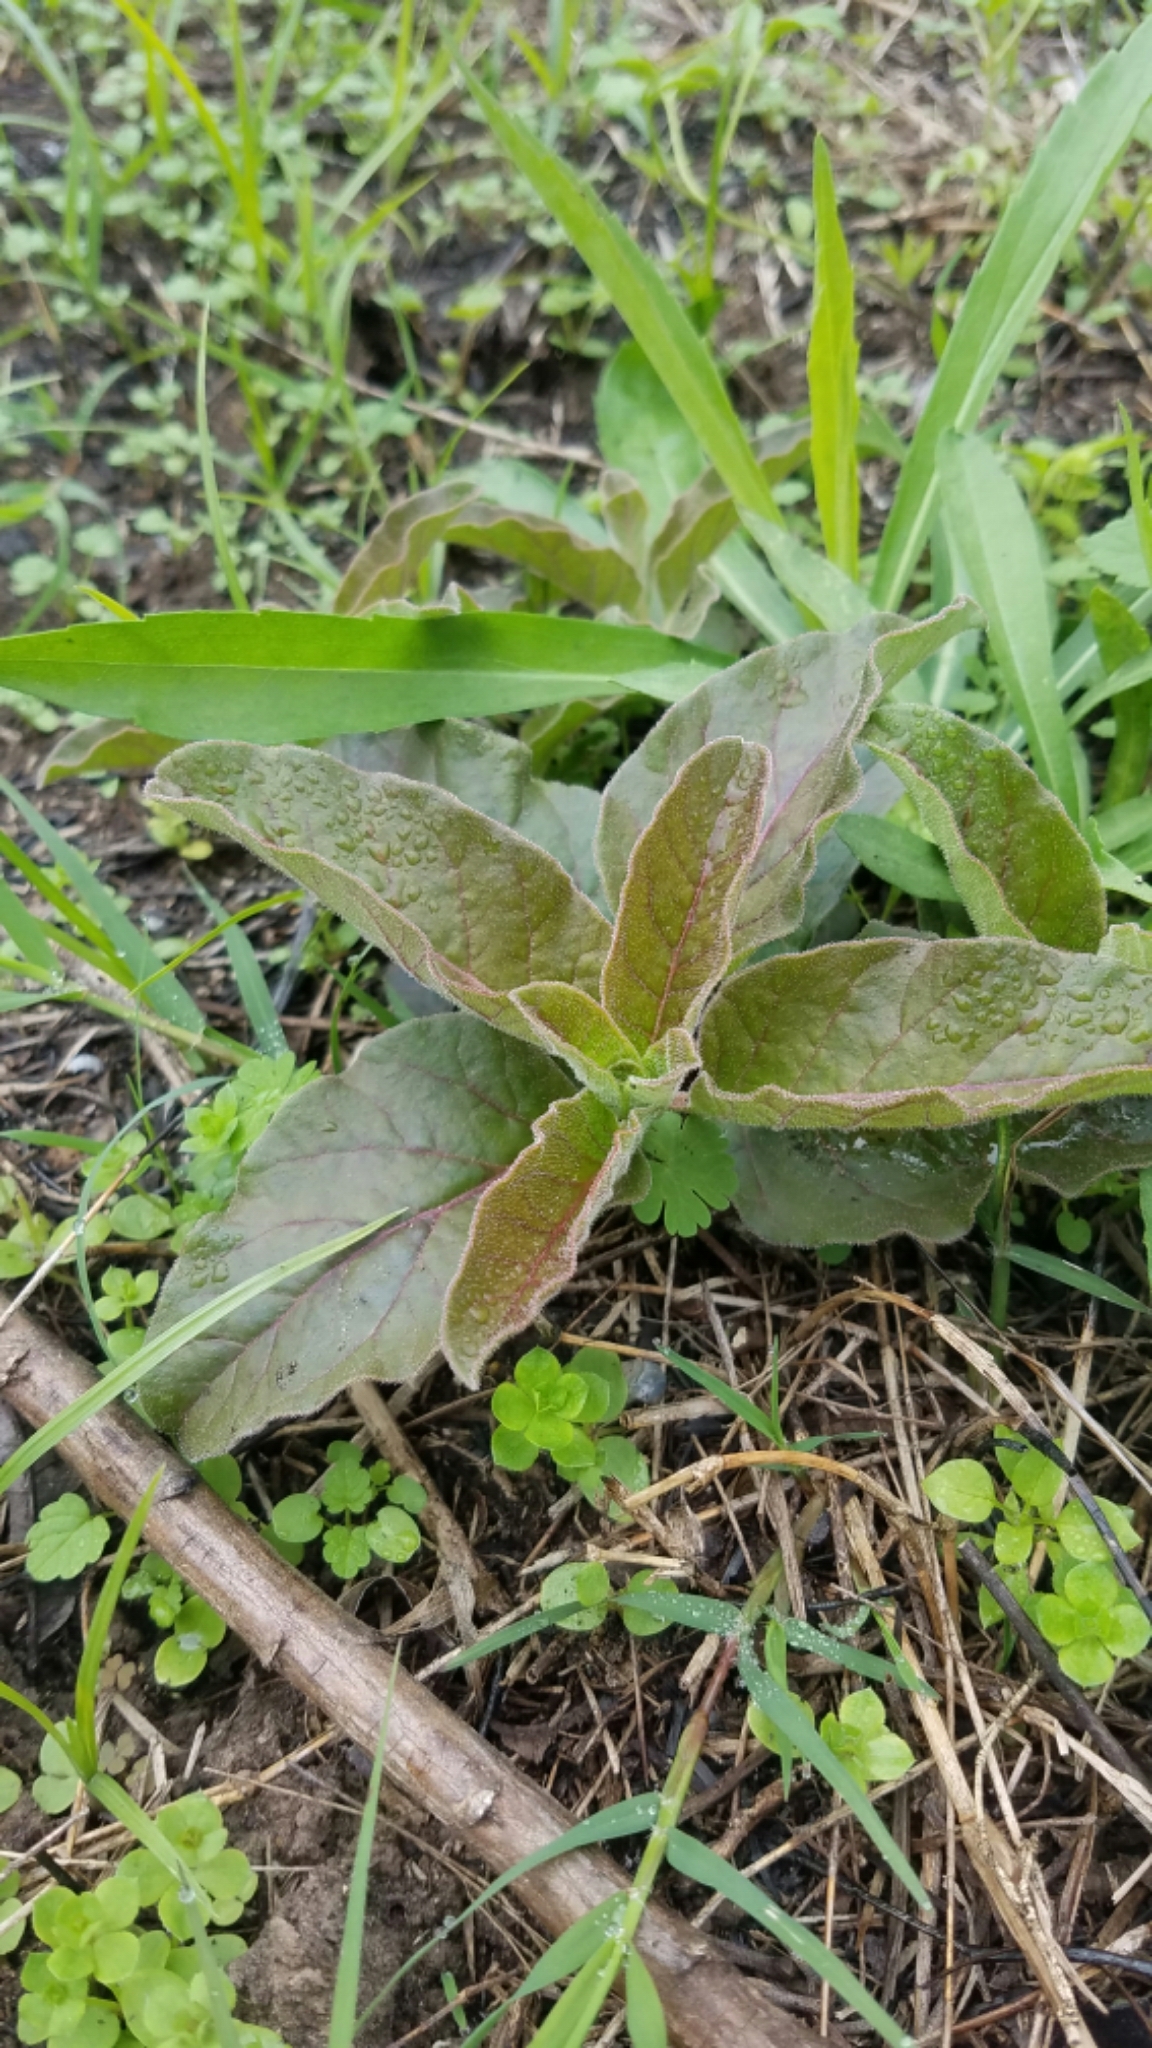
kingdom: Plantae
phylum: Tracheophyta
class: Magnoliopsida
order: Gentianales
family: Apocynaceae
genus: Asclepias
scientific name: Asclepias oenotheroides
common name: Zizotes milkweed
